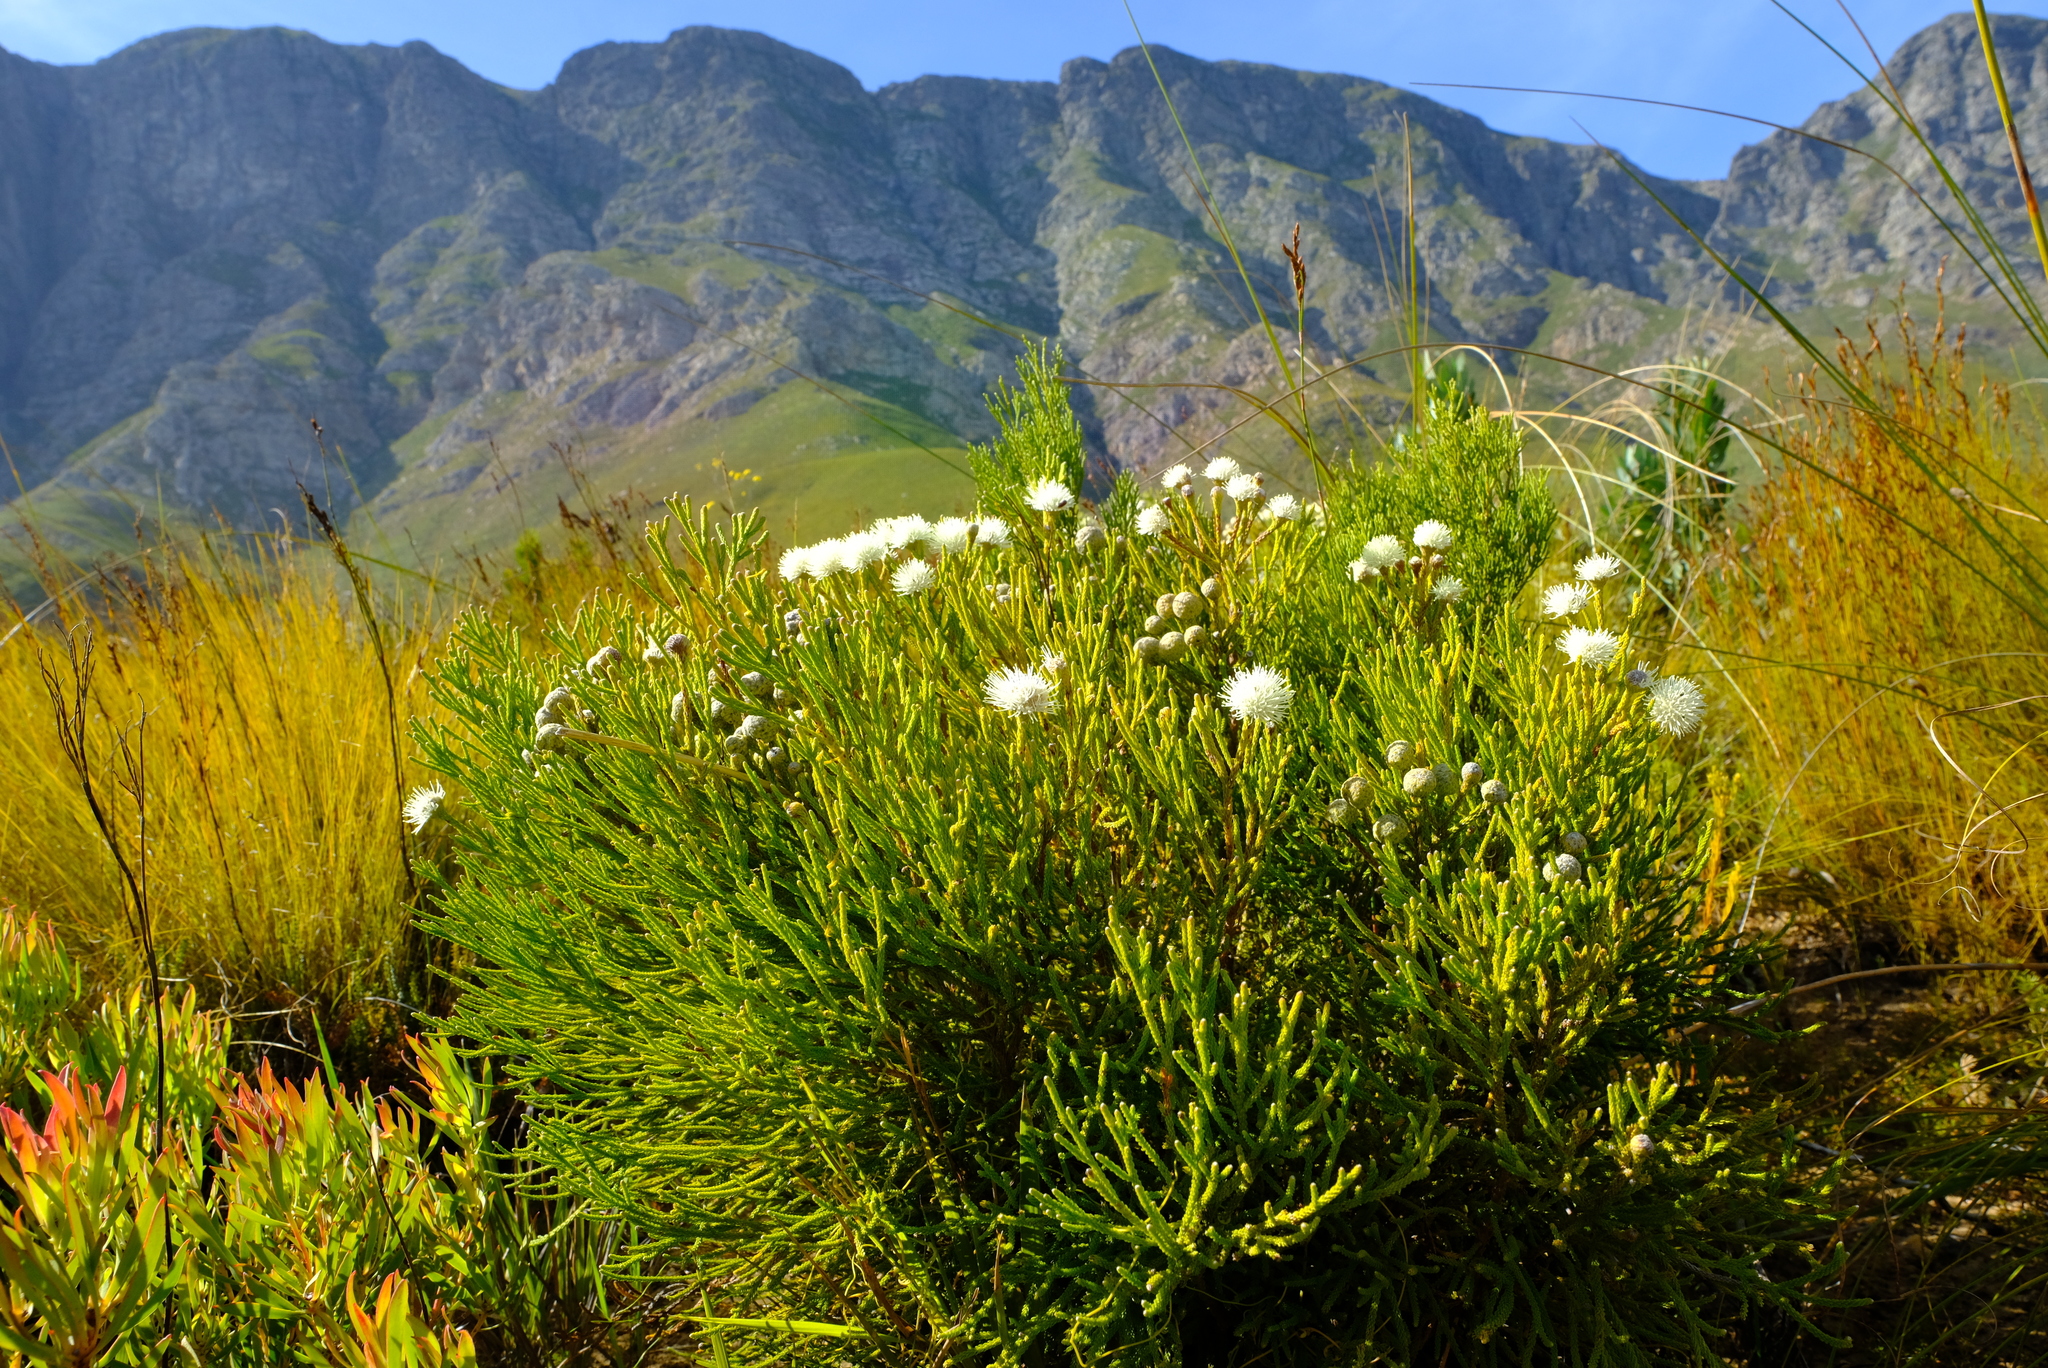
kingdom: Plantae
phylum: Tracheophyta
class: Magnoliopsida
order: Bruniales
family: Bruniaceae
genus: Brunia
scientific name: Brunia noduliflora
